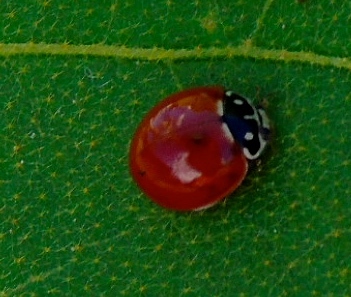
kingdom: Animalia
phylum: Arthropoda
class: Insecta
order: Coleoptera
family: Coccinellidae
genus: Cycloneda
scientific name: Cycloneda sanguinea
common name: Ladybird beetle
